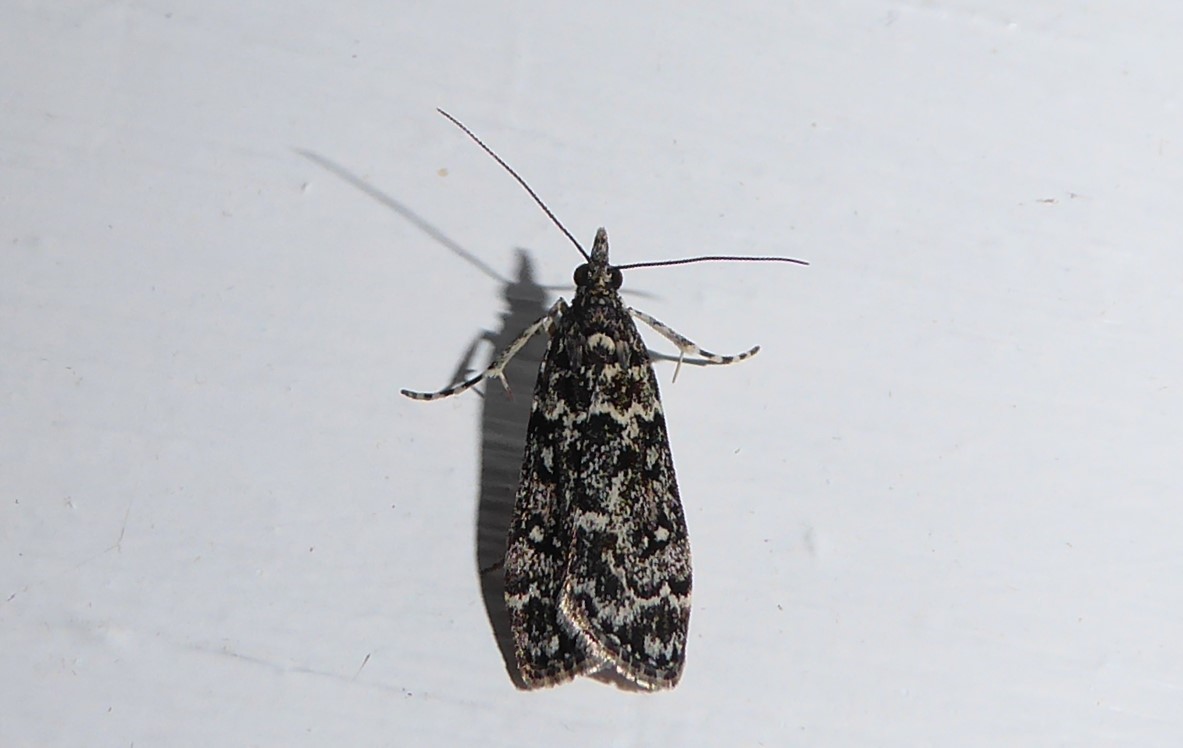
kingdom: Animalia
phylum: Arthropoda
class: Insecta
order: Lepidoptera
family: Crambidae
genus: Eudonia
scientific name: Eudonia philerga
